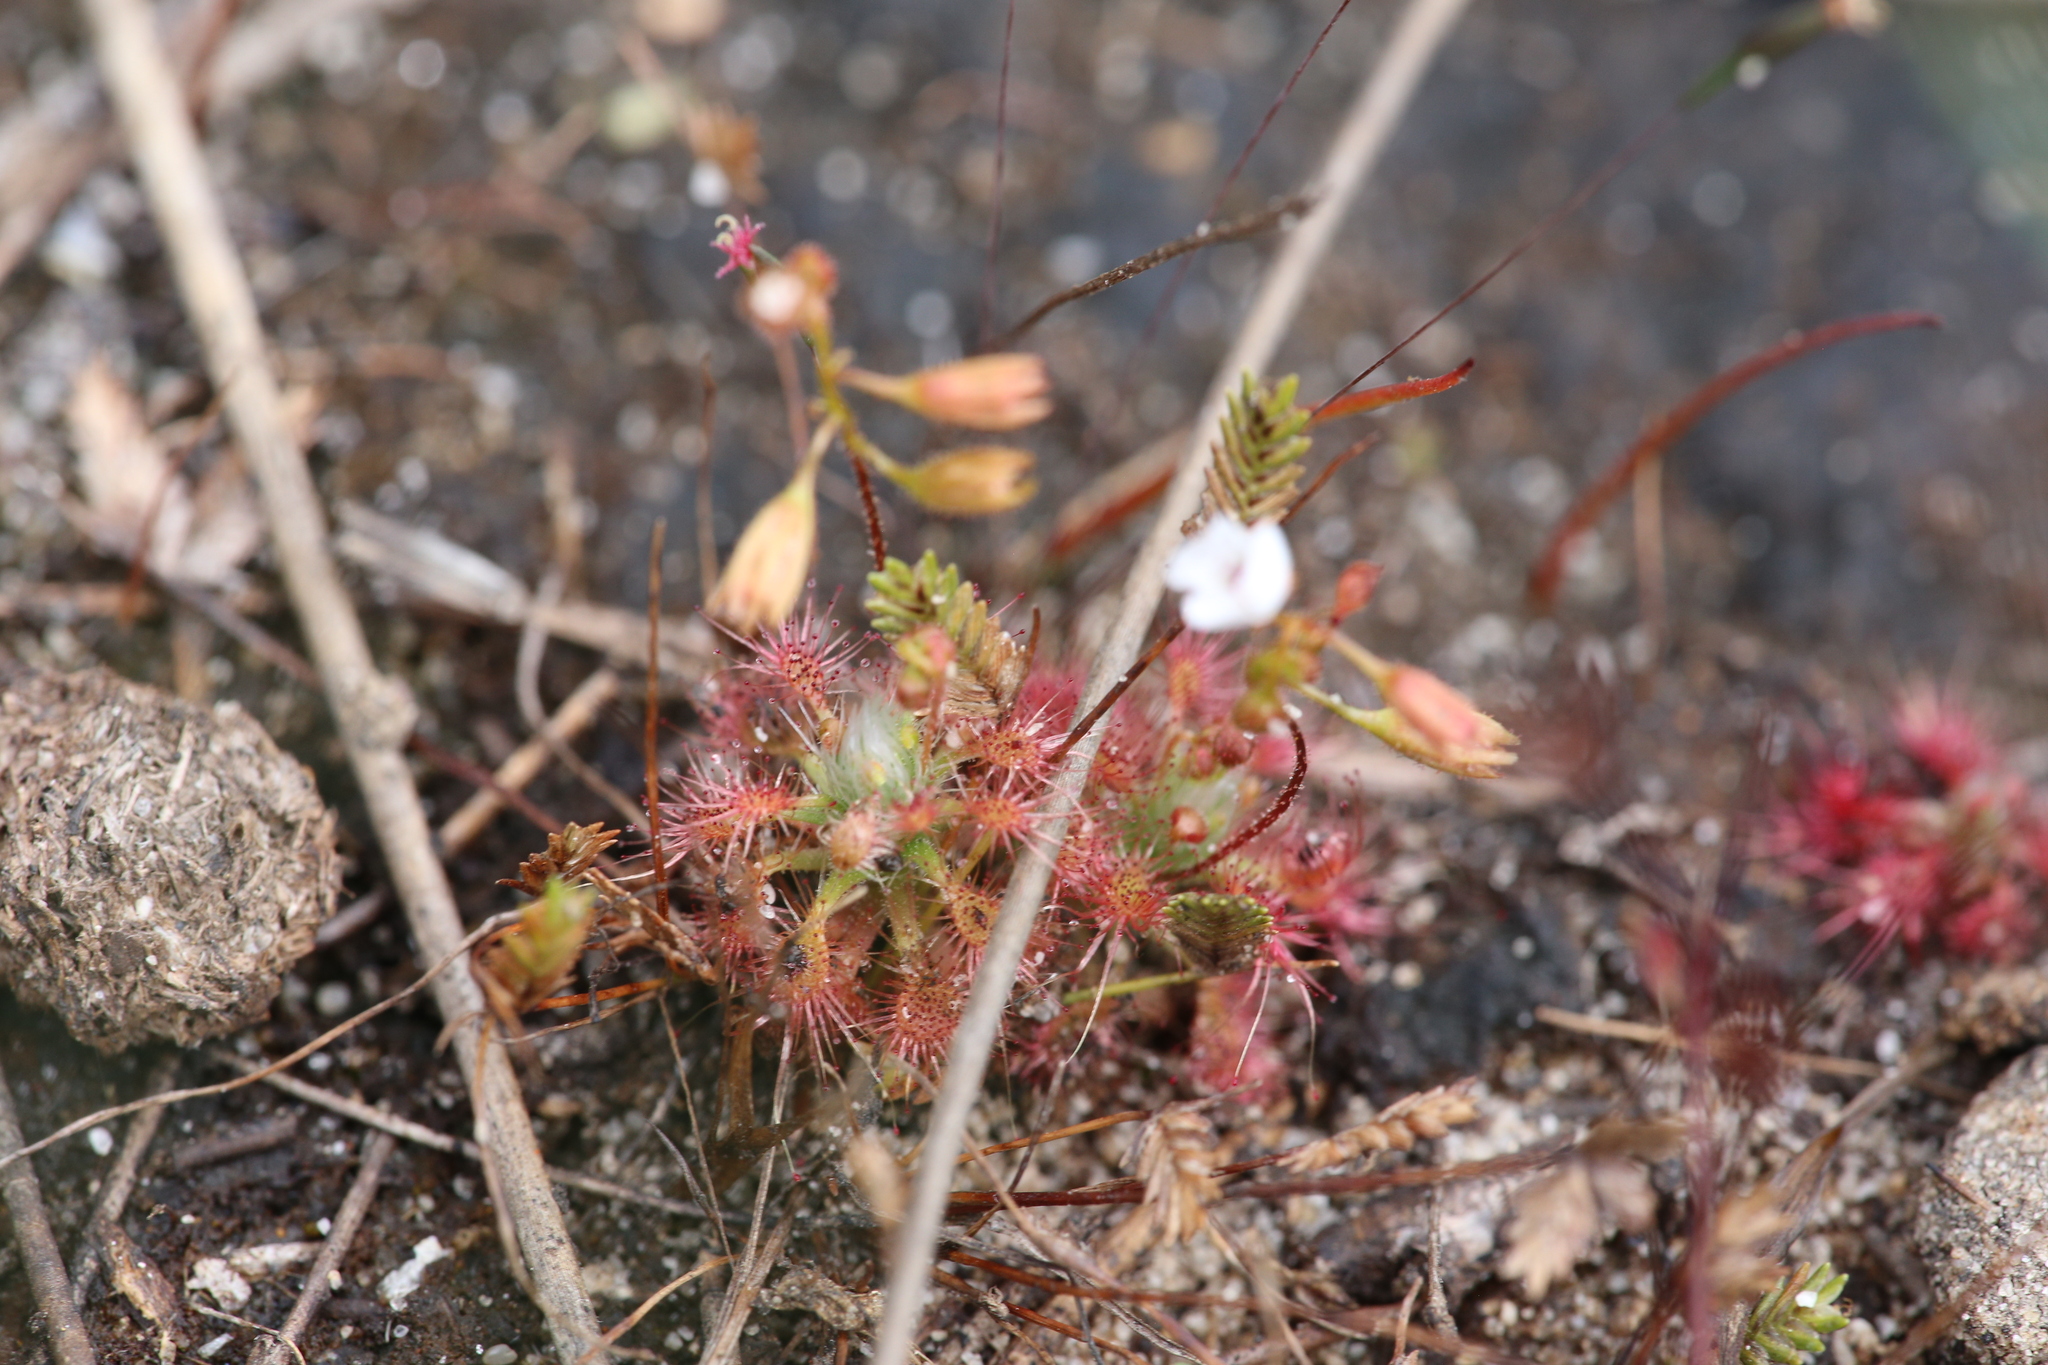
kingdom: Plantae
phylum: Tracheophyta
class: Magnoliopsida
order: Caryophyllales
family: Droseraceae
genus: Drosera
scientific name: Drosera nitidula
